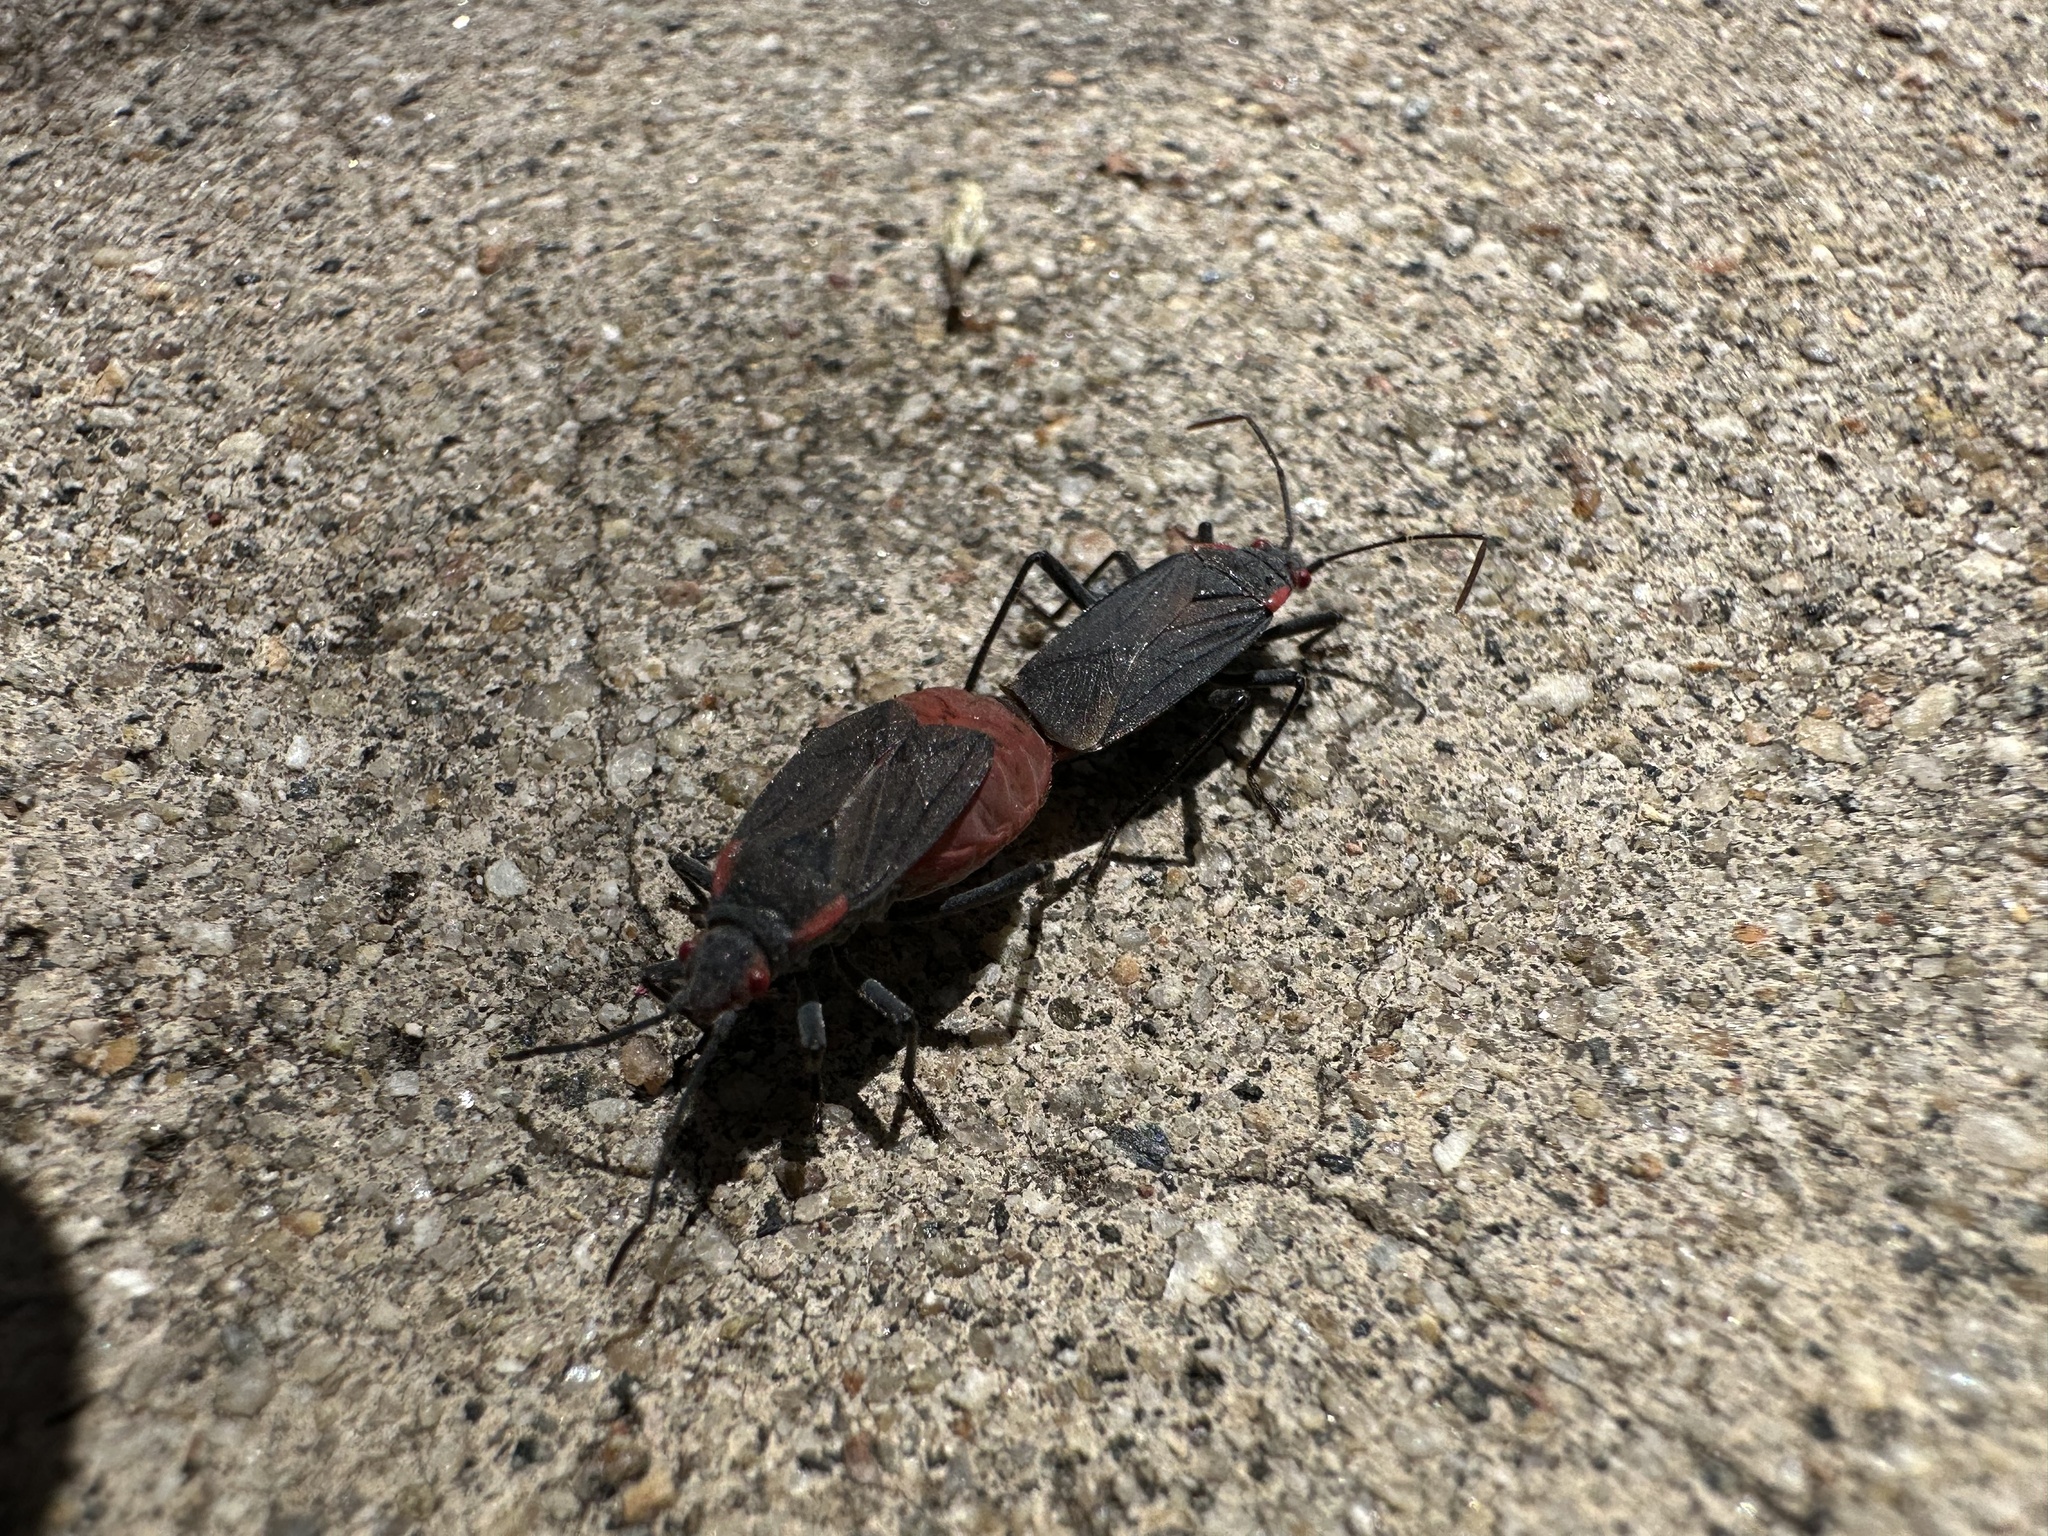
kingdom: Animalia
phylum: Arthropoda
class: Insecta
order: Hemiptera
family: Rhopalidae
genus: Jadera
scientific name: Jadera haematoloma
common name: Red-shouldered bug
